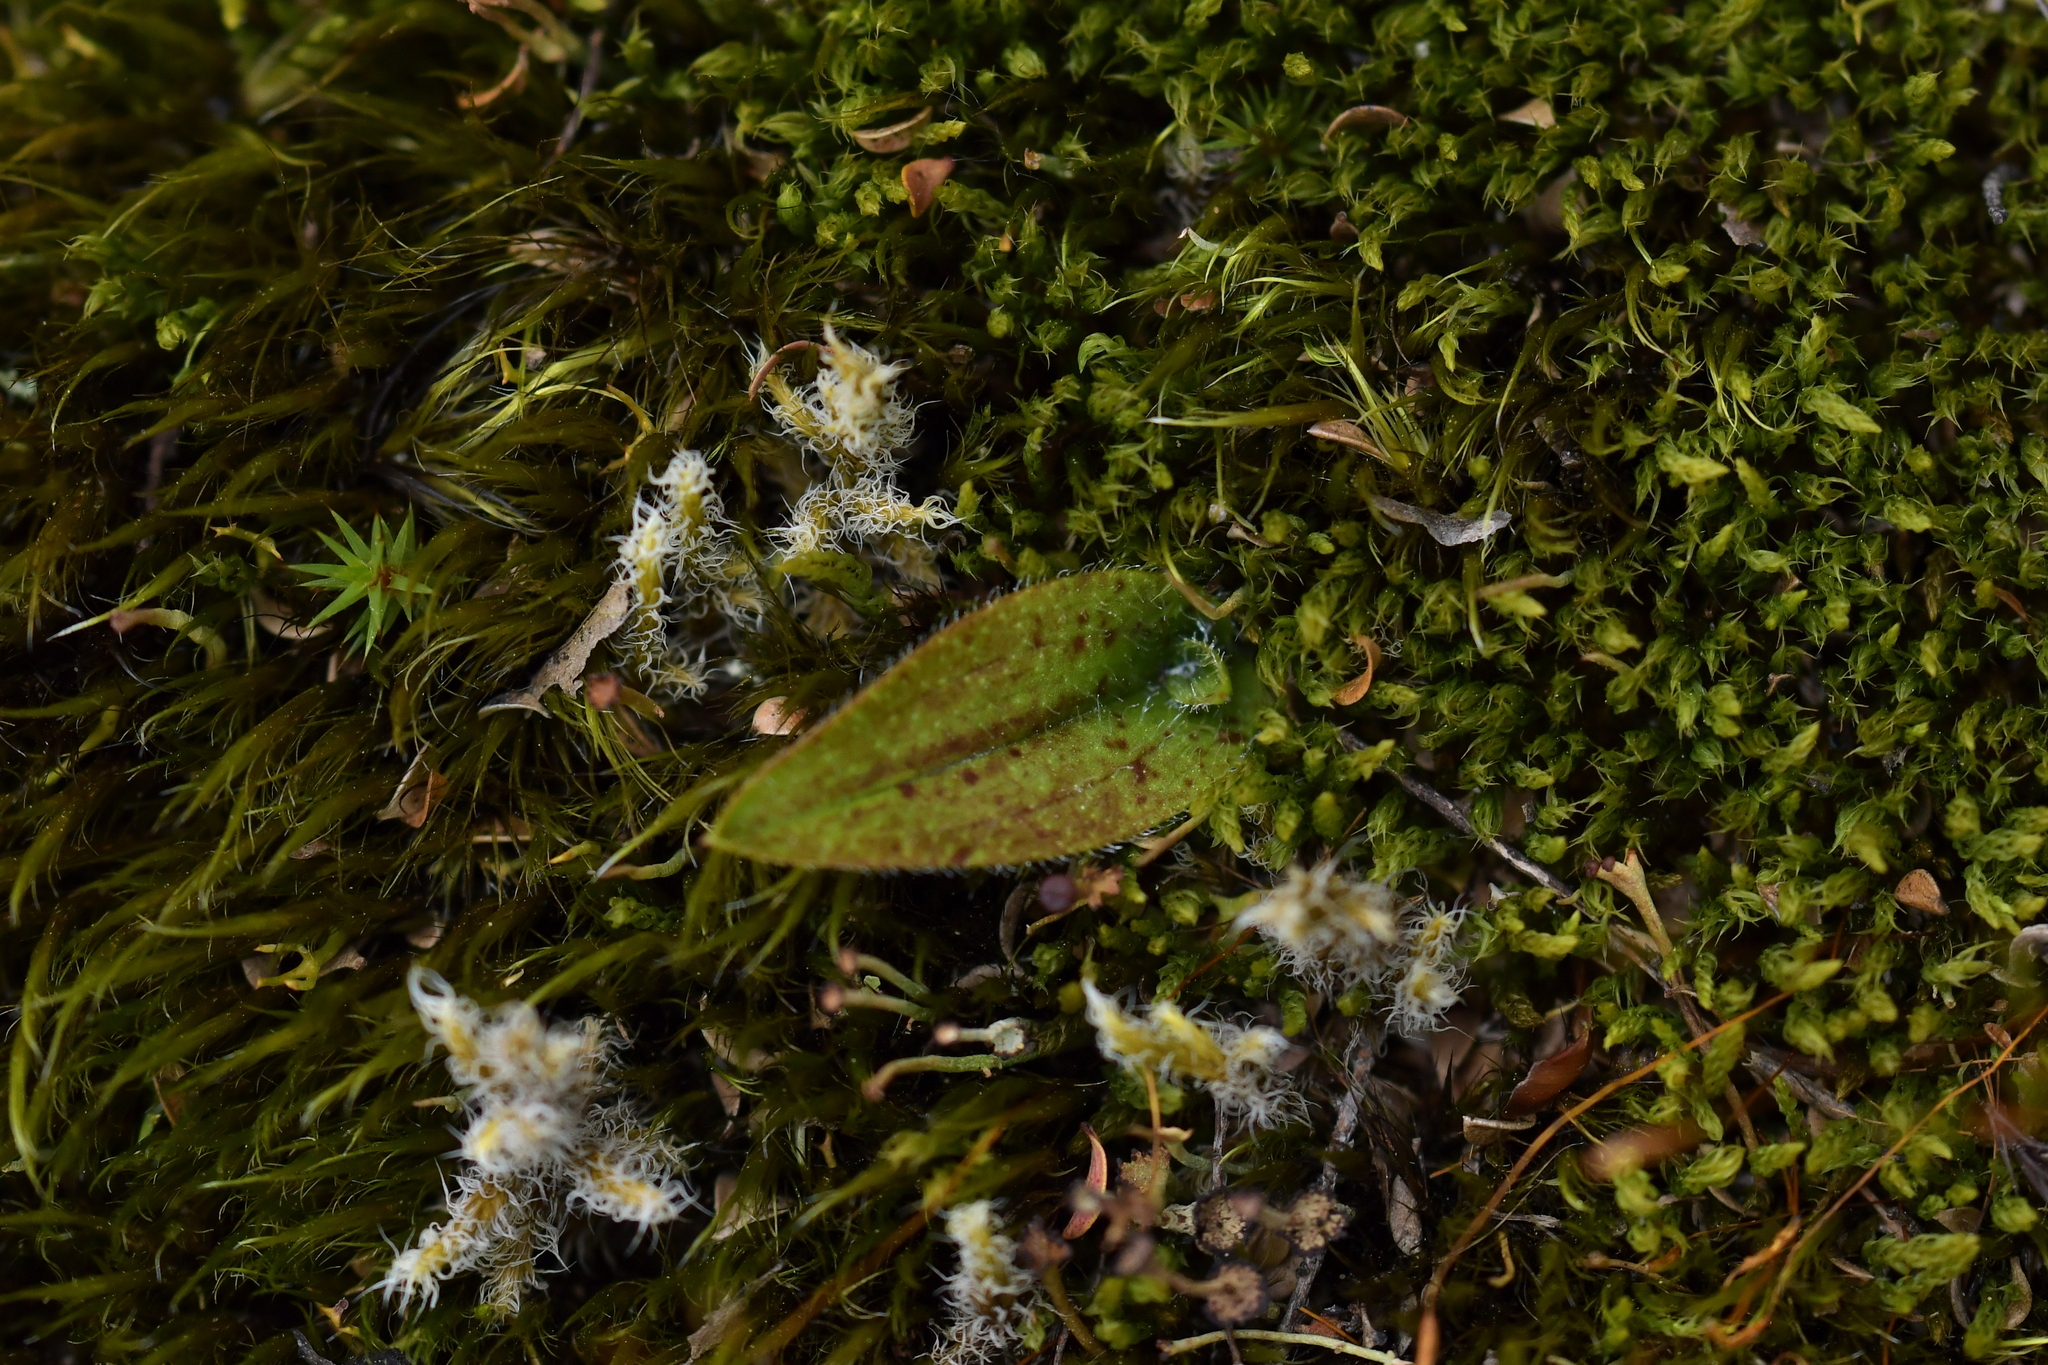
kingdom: Plantae
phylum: Tracheophyta
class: Liliopsida
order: Asparagales
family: Orchidaceae
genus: Aporostylis
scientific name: Aporostylis bifolia
